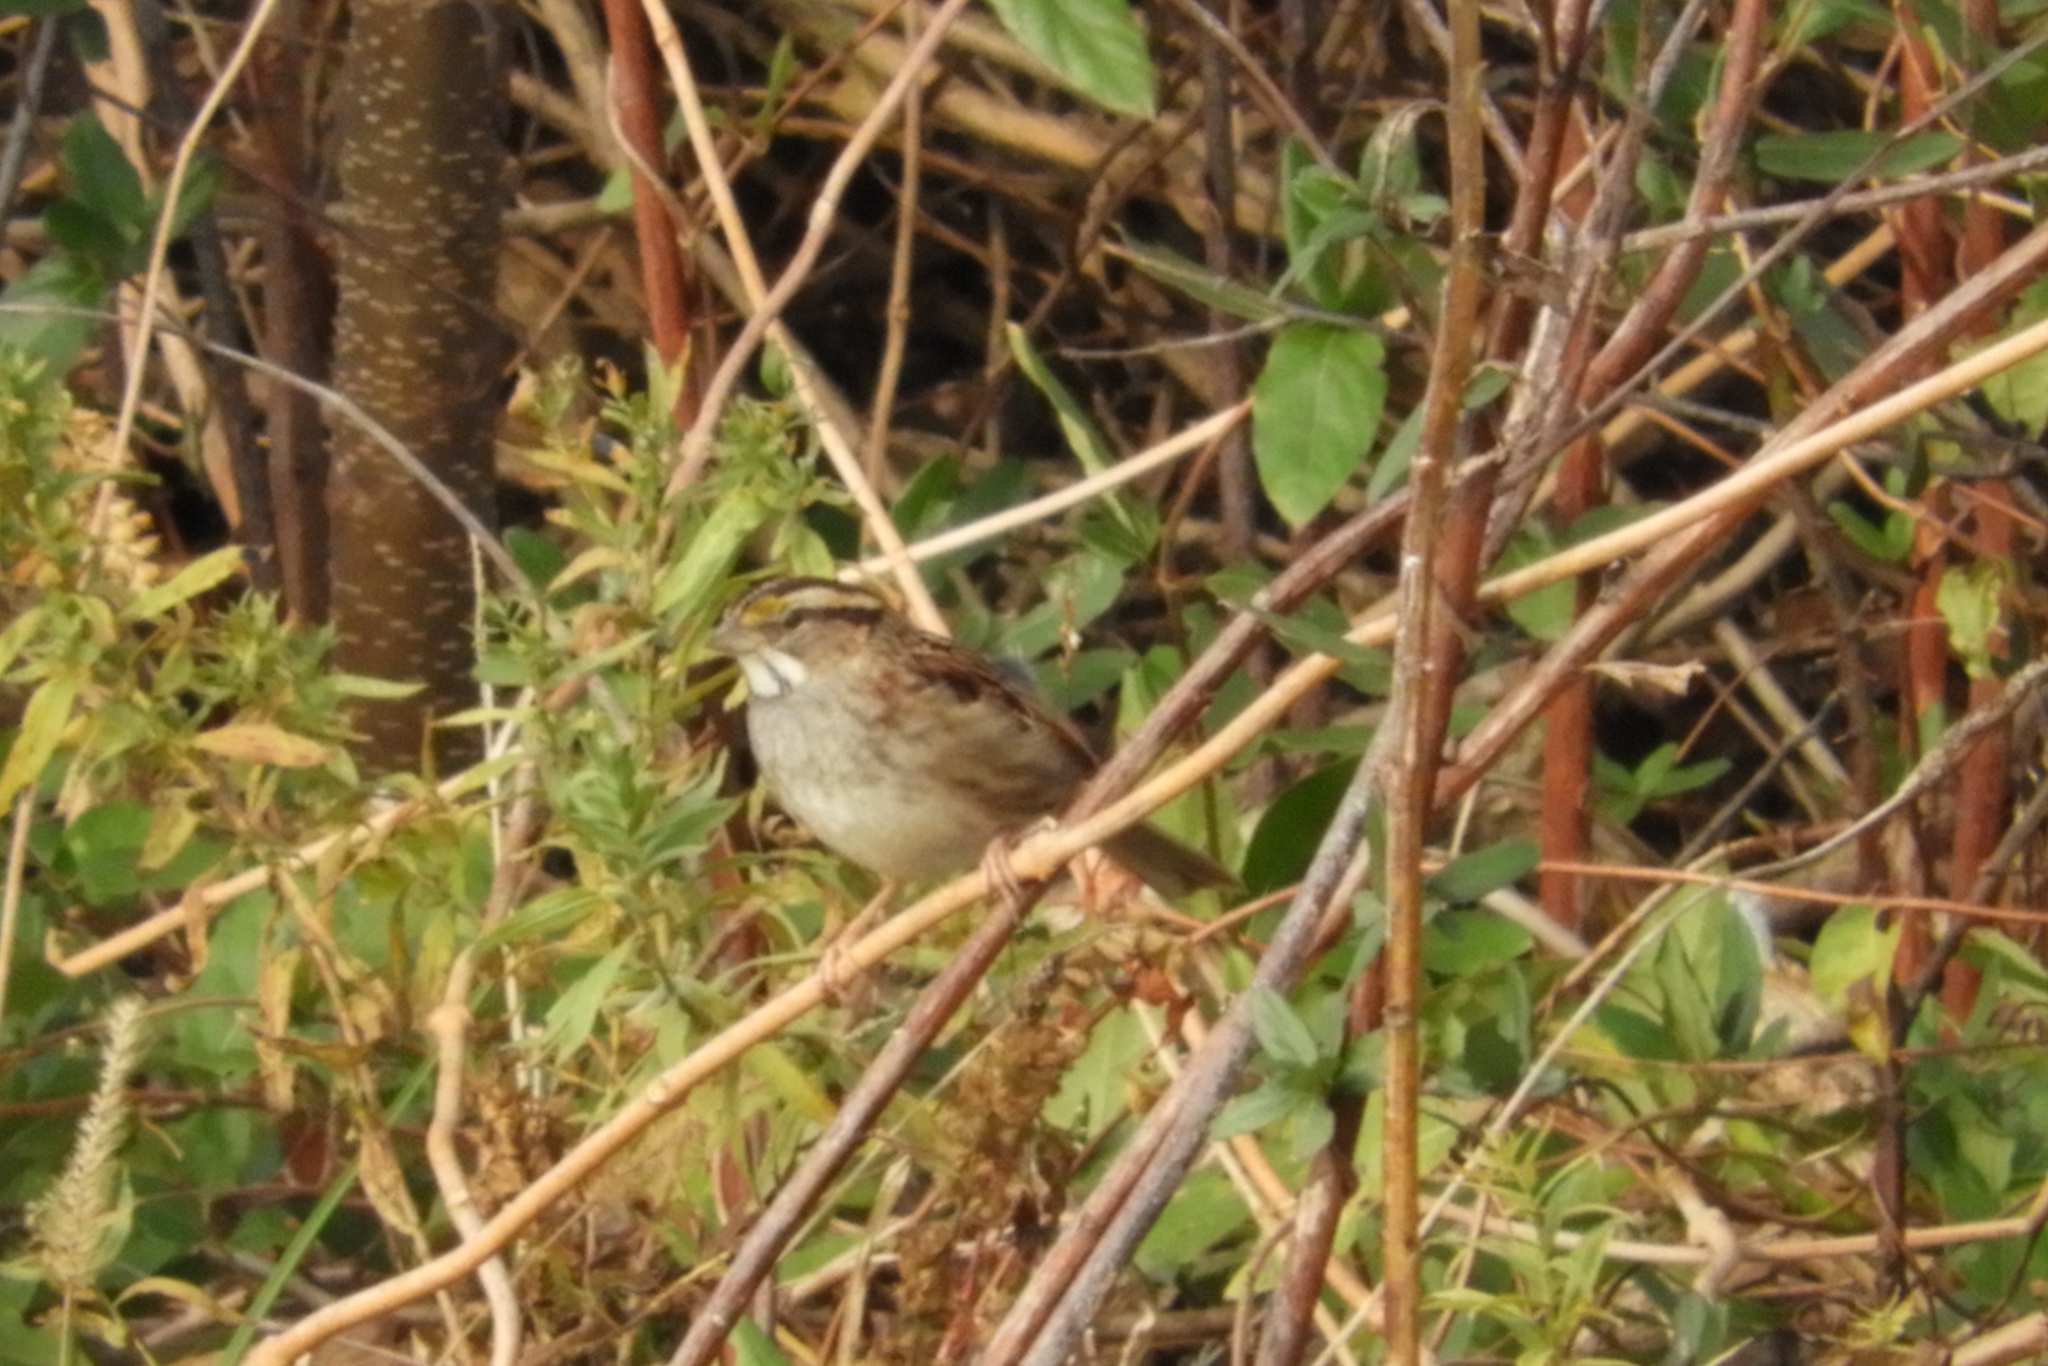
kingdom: Animalia
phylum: Chordata
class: Aves
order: Passeriformes
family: Passerellidae
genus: Zonotrichia
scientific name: Zonotrichia albicollis
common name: White-throated sparrow
